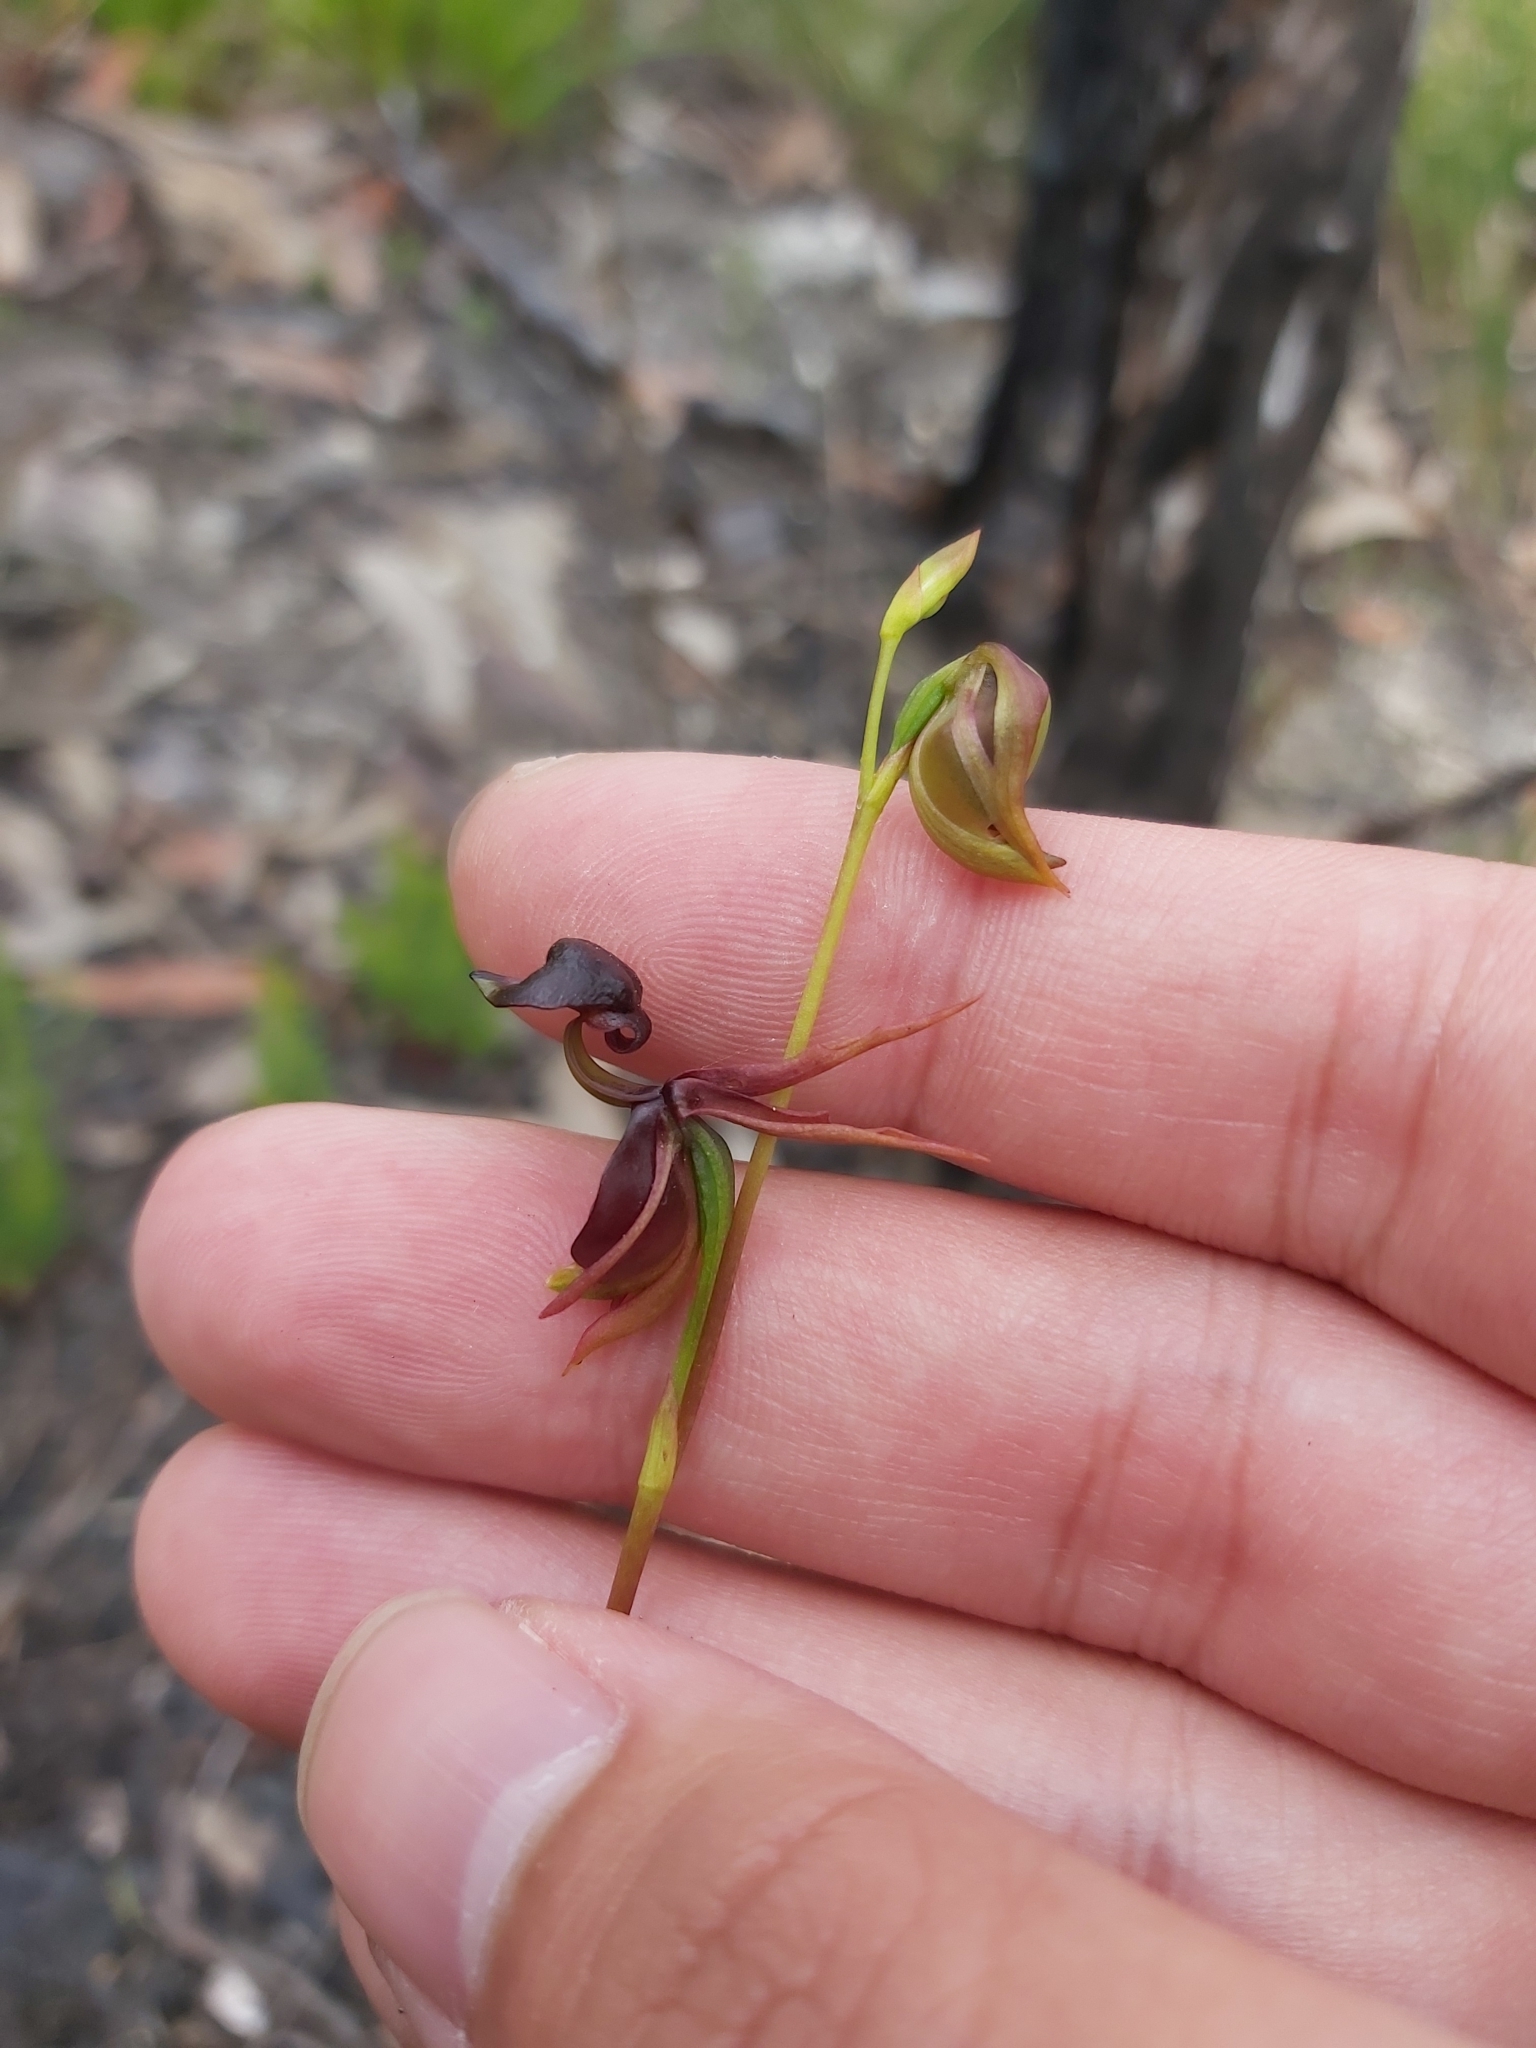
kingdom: Plantae
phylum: Tracheophyta
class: Liliopsida
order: Asparagales
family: Orchidaceae
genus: Caleana
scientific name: Caleana major
